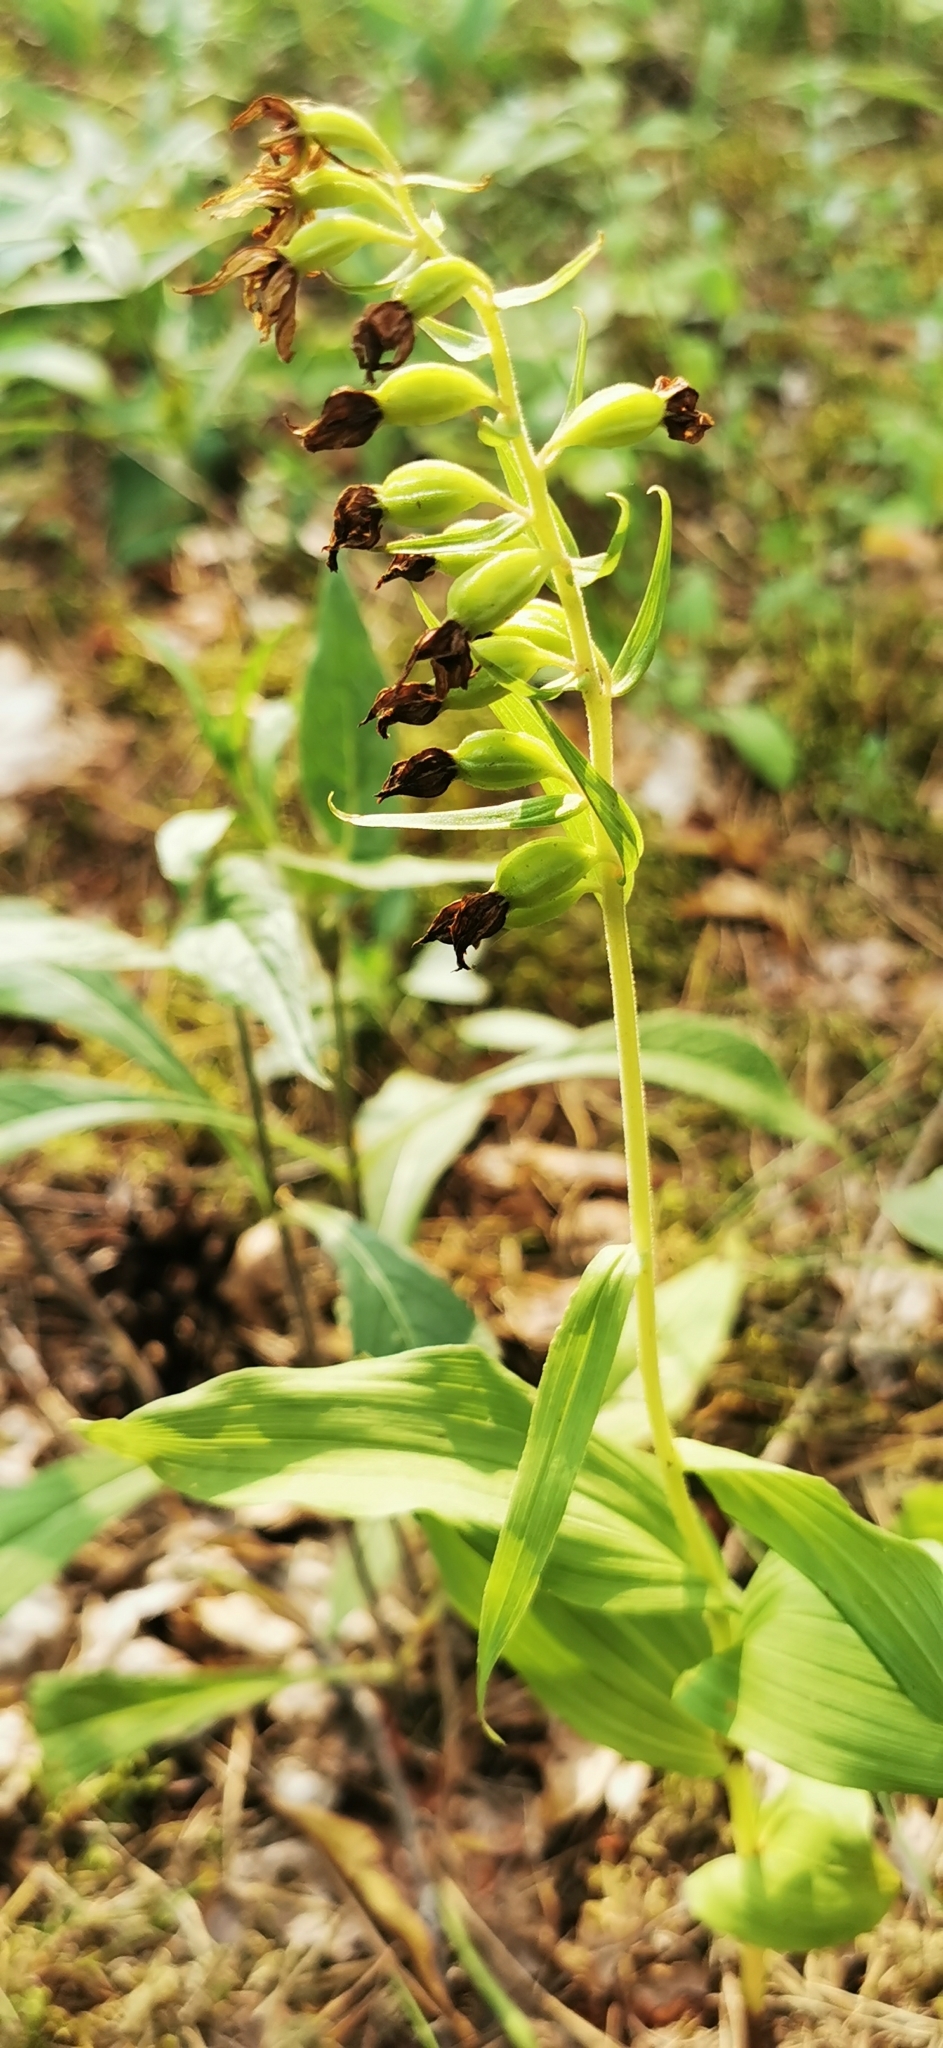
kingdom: Plantae
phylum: Tracheophyta
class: Liliopsida
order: Asparagales
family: Orchidaceae
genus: Epipactis
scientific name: Epipactis helleborine
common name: Broad-leaved helleborine
